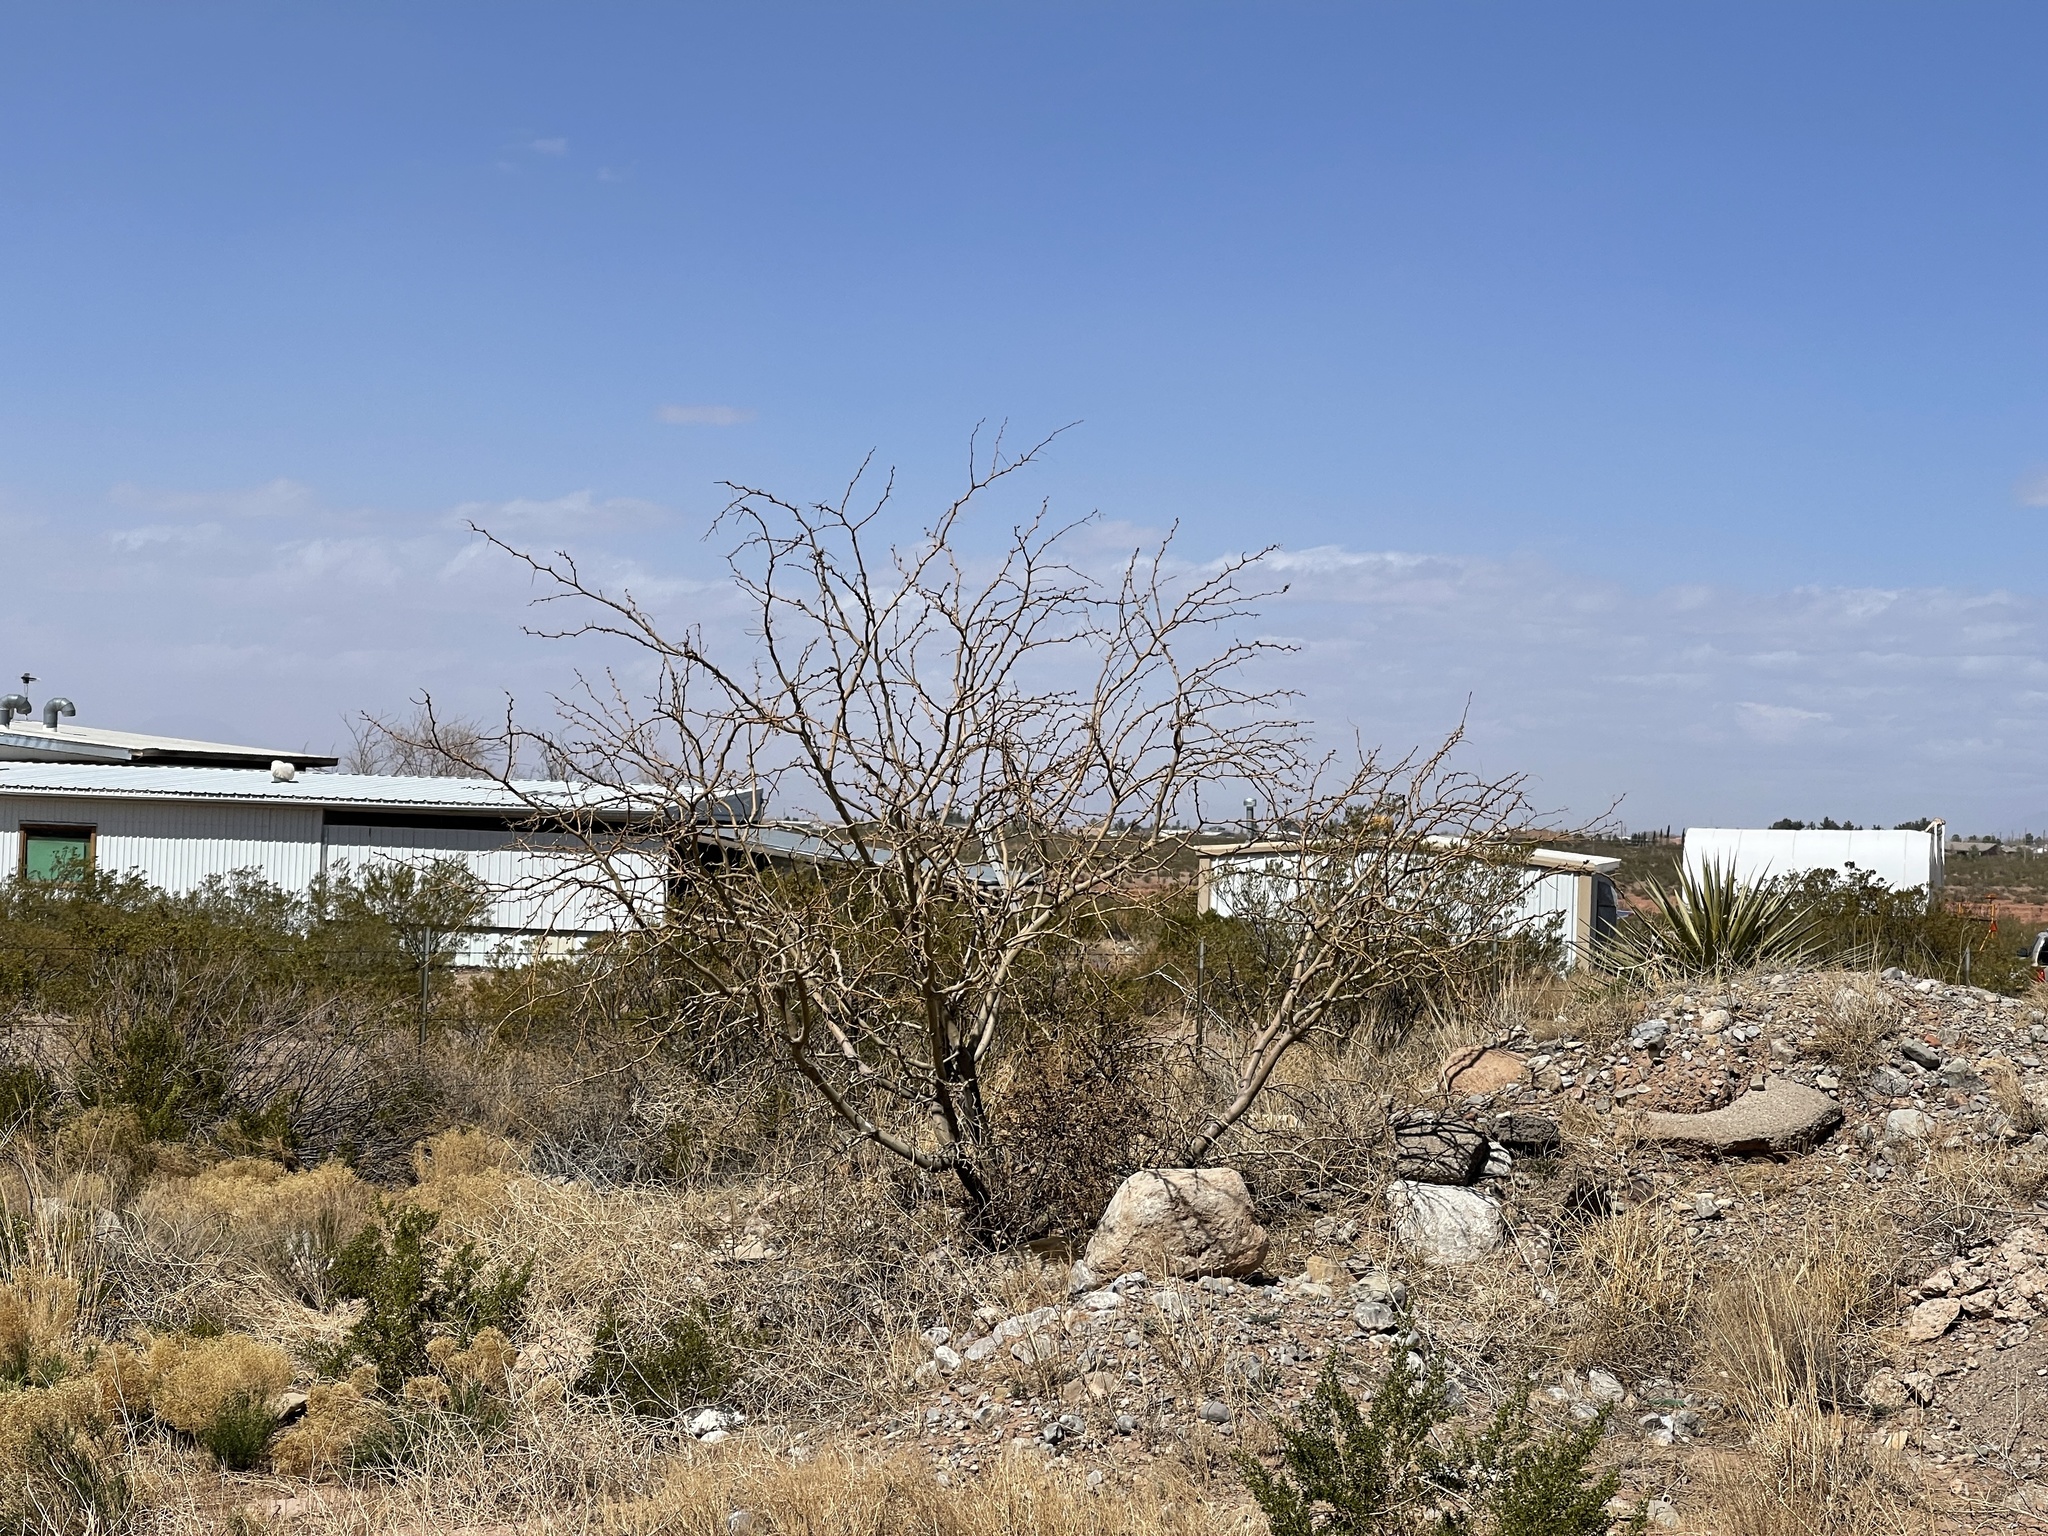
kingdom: Plantae
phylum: Tracheophyta
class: Magnoliopsida
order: Fabales
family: Fabaceae
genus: Prosopis
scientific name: Prosopis glandulosa
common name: Honey mesquite
